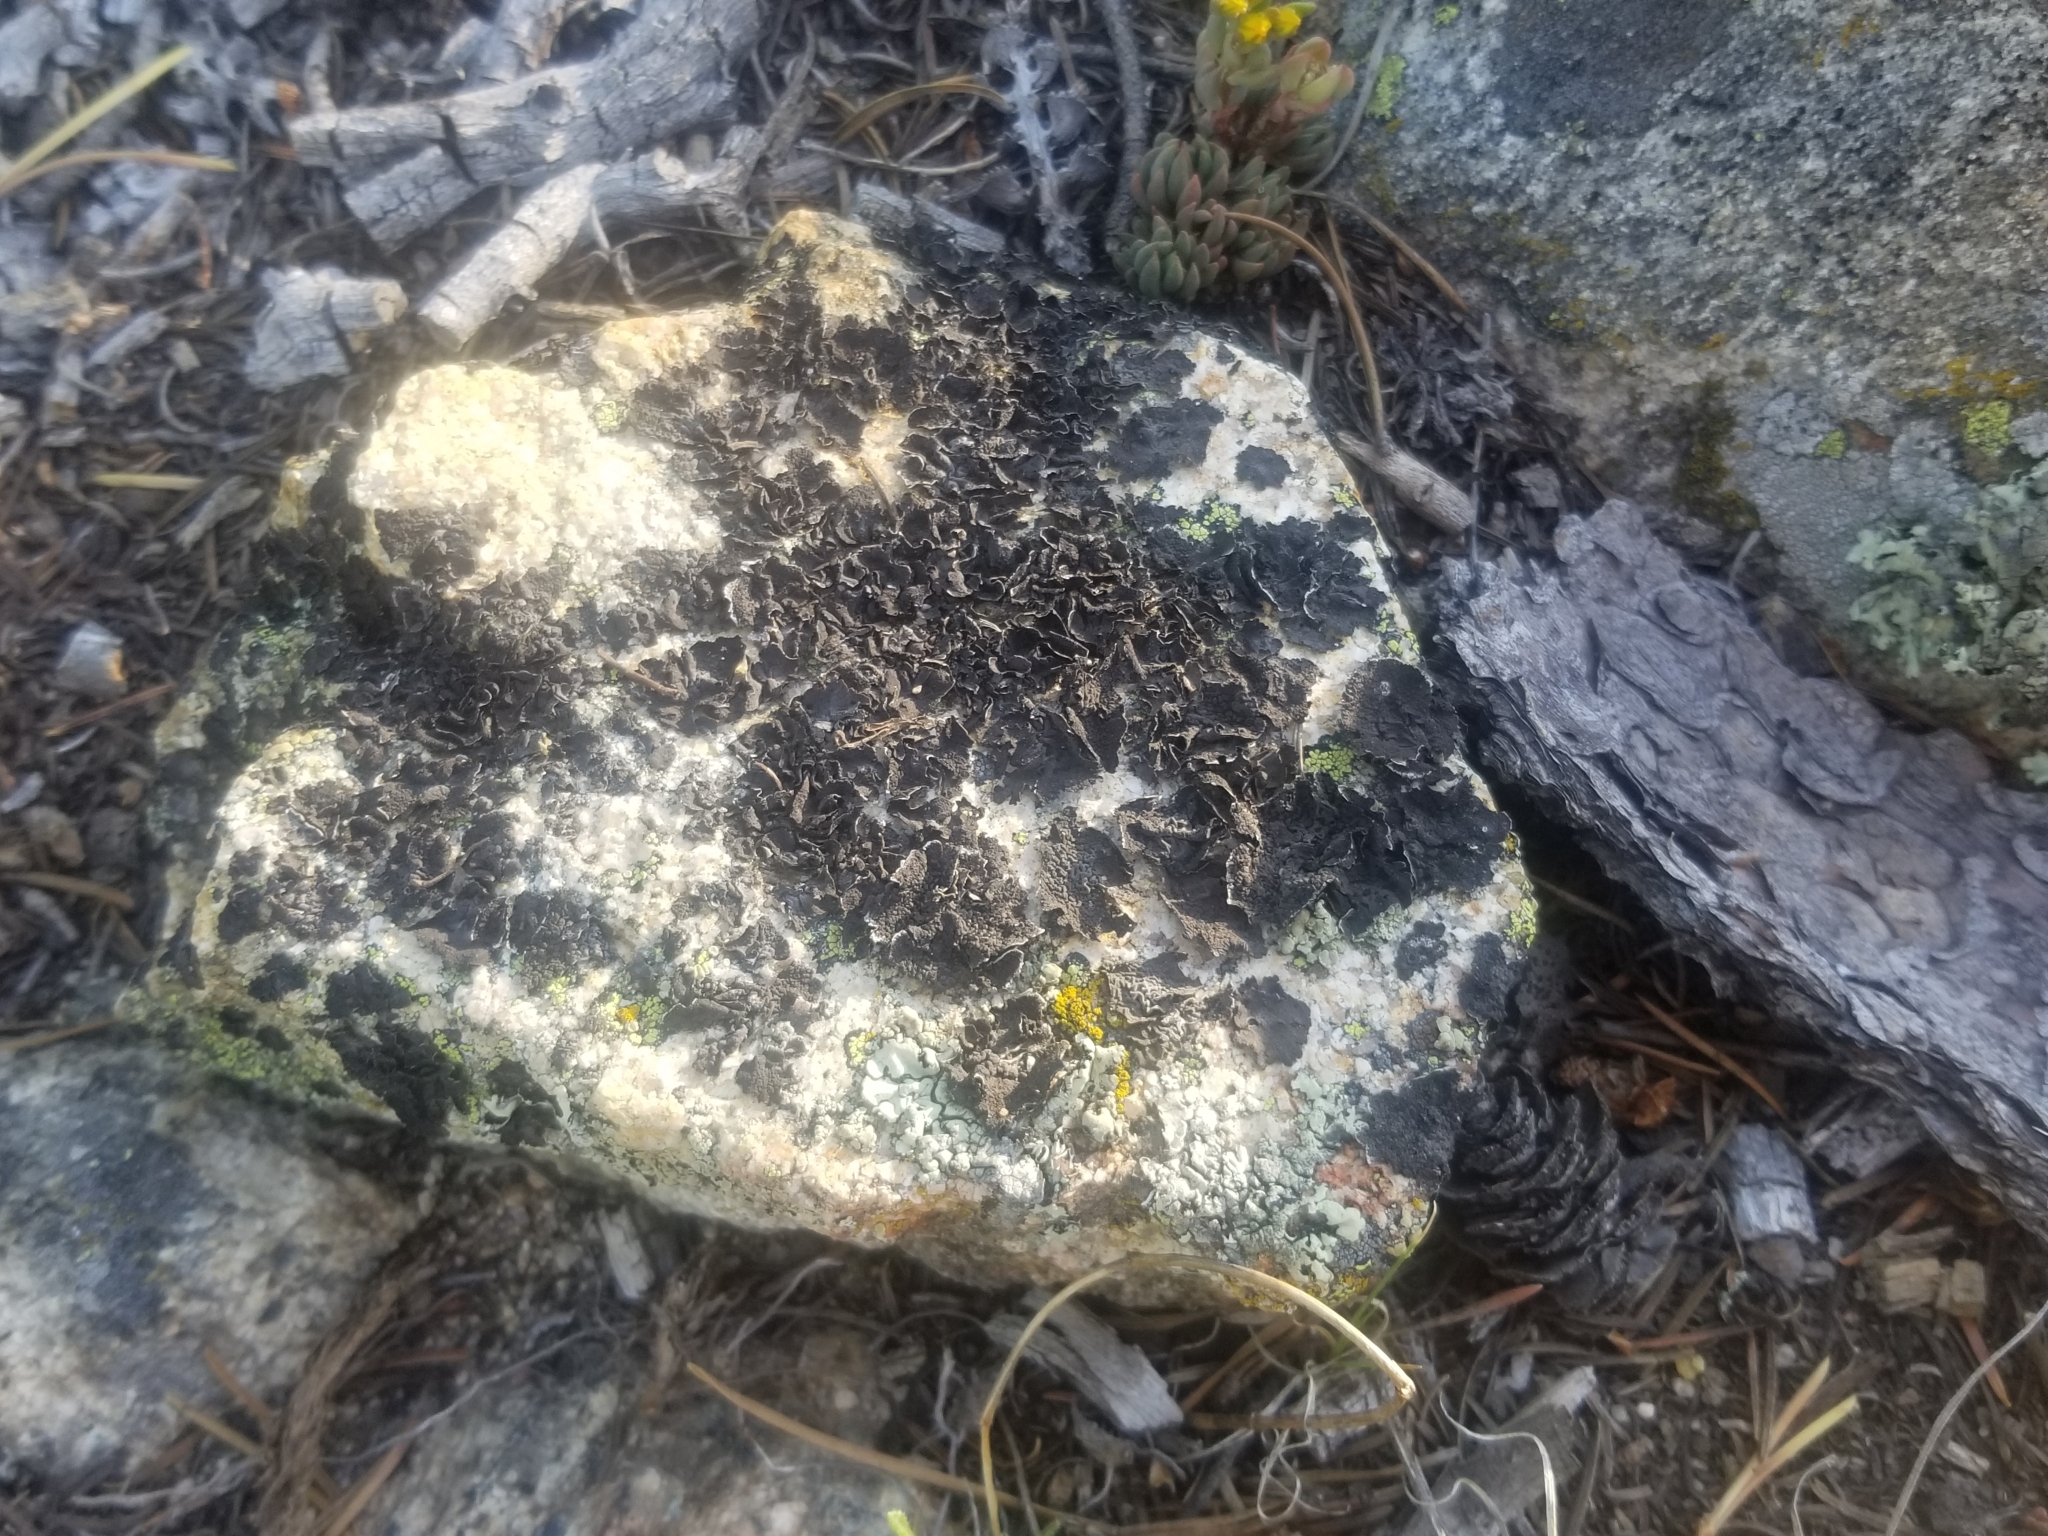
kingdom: Plantae
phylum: Tracheophyta
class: Magnoliopsida
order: Saxifragales
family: Crassulaceae
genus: Sedum
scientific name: Sedum lanceolatum
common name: Common stonecrop
